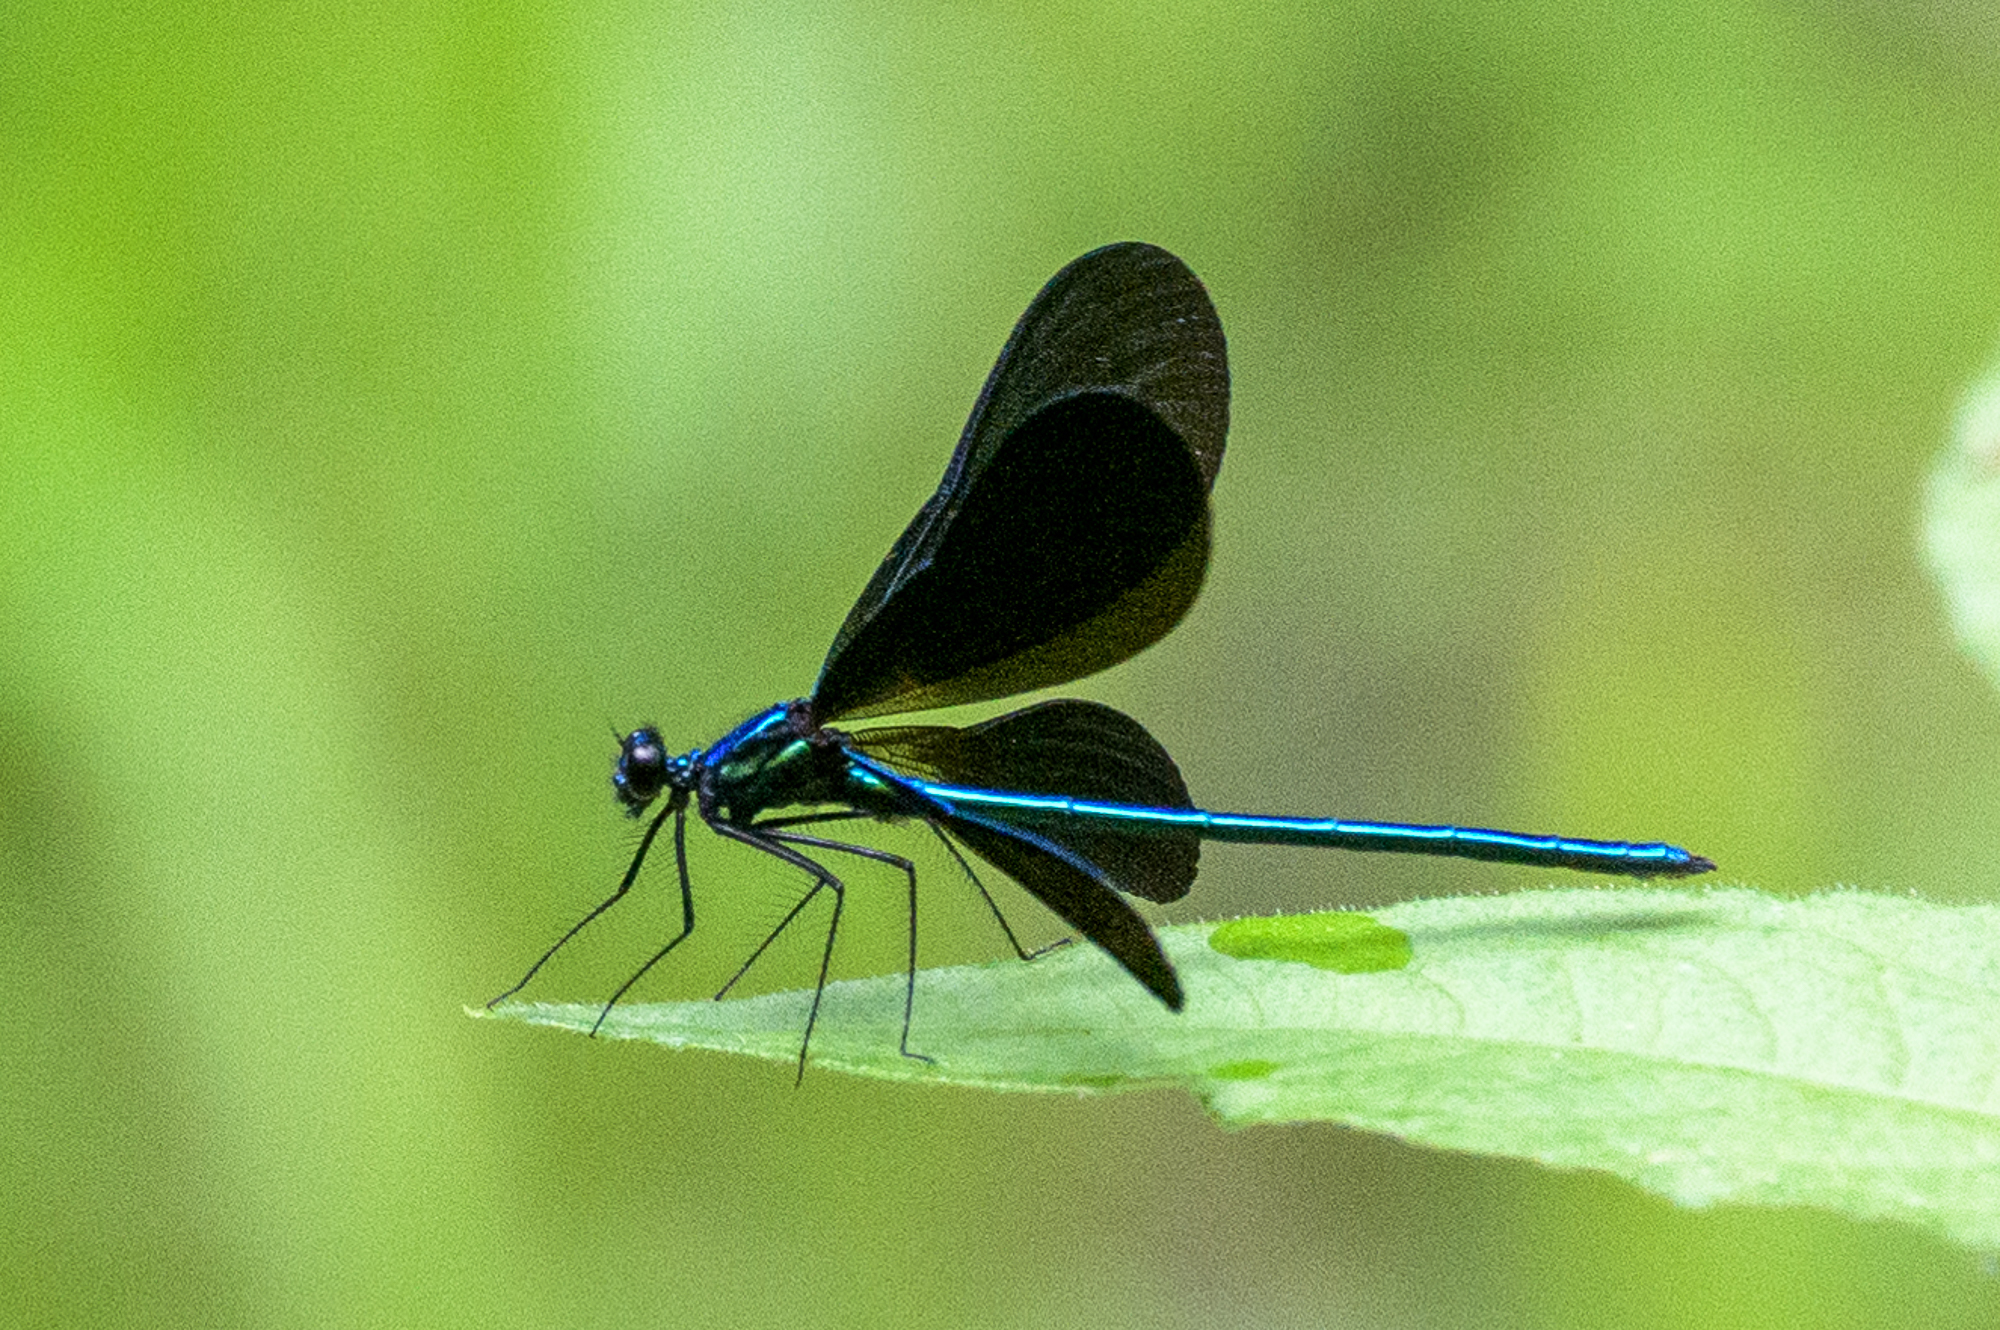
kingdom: Animalia
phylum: Arthropoda
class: Insecta
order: Odonata
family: Calopterygidae
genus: Calopteryx
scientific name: Calopteryx maculata
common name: Ebony jewelwing
